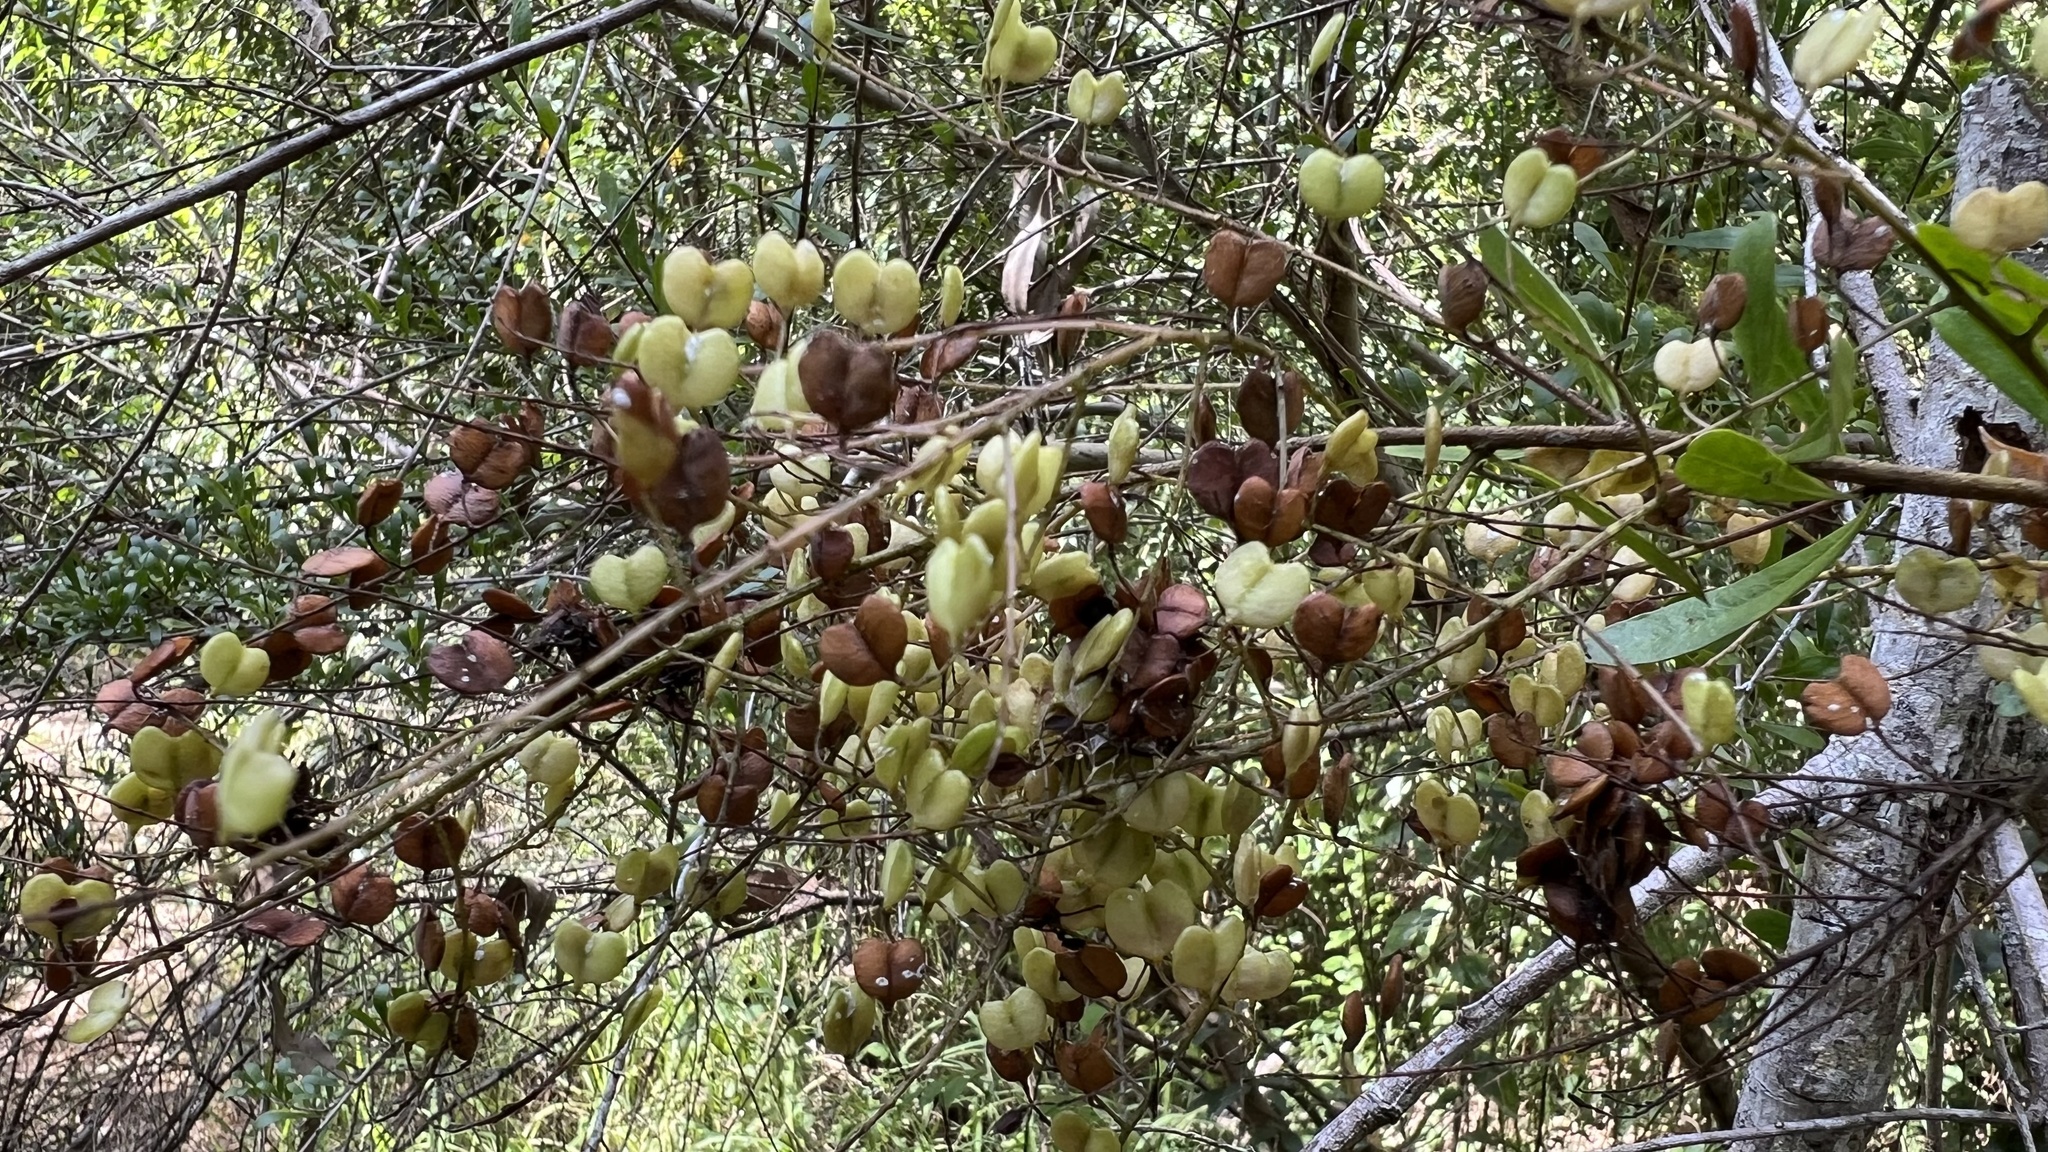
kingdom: Plantae
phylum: Tracheophyta
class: Magnoliopsida
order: Apiales
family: Pittosporaceae
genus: Bursaria
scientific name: Bursaria spinosa
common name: Australian blackthorn
